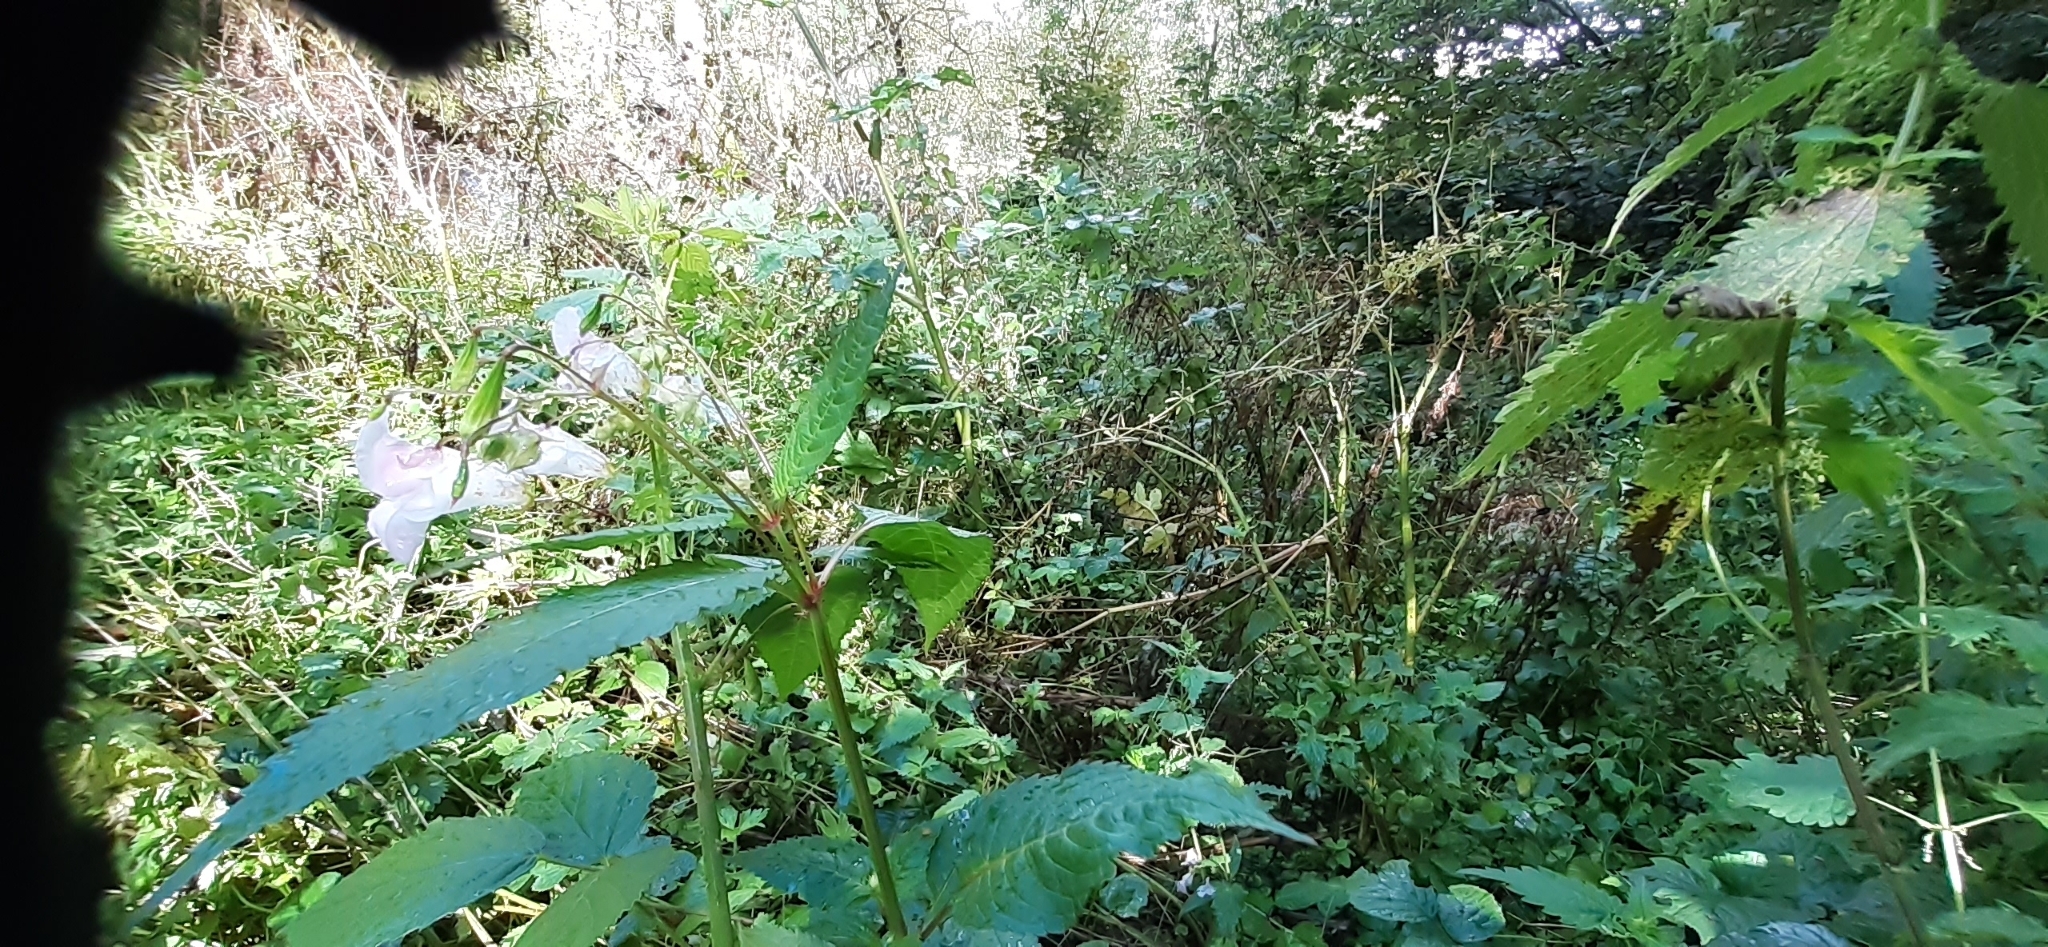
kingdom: Plantae
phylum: Tracheophyta
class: Magnoliopsida
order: Ericales
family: Balsaminaceae
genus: Impatiens
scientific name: Impatiens glandulifera
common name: Himalayan balsam
